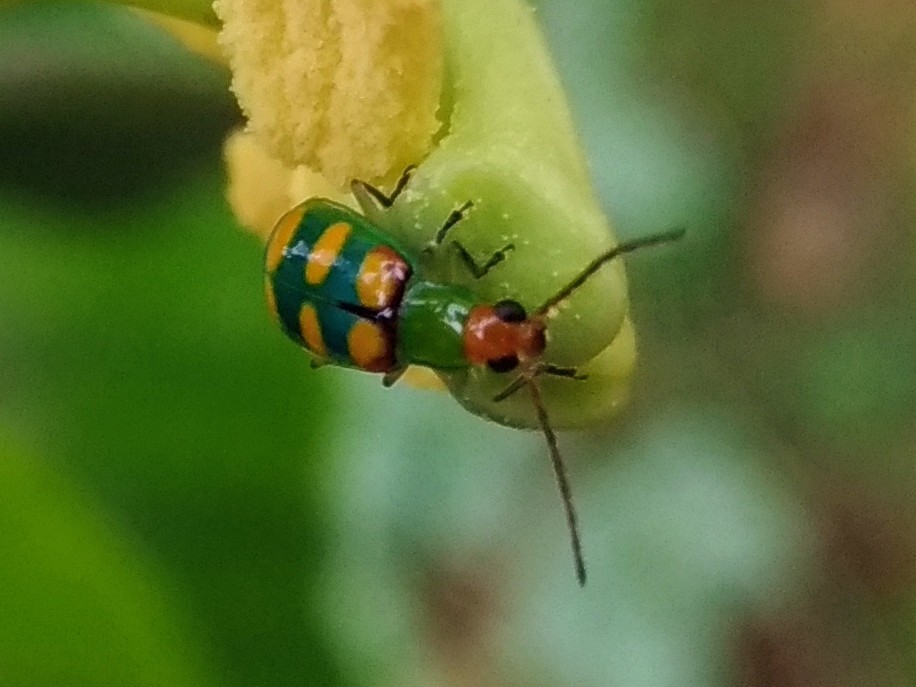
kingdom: Animalia
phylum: Arthropoda
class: Insecta
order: Coleoptera
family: Chrysomelidae
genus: Diabrotica
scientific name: Diabrotica speciosa
